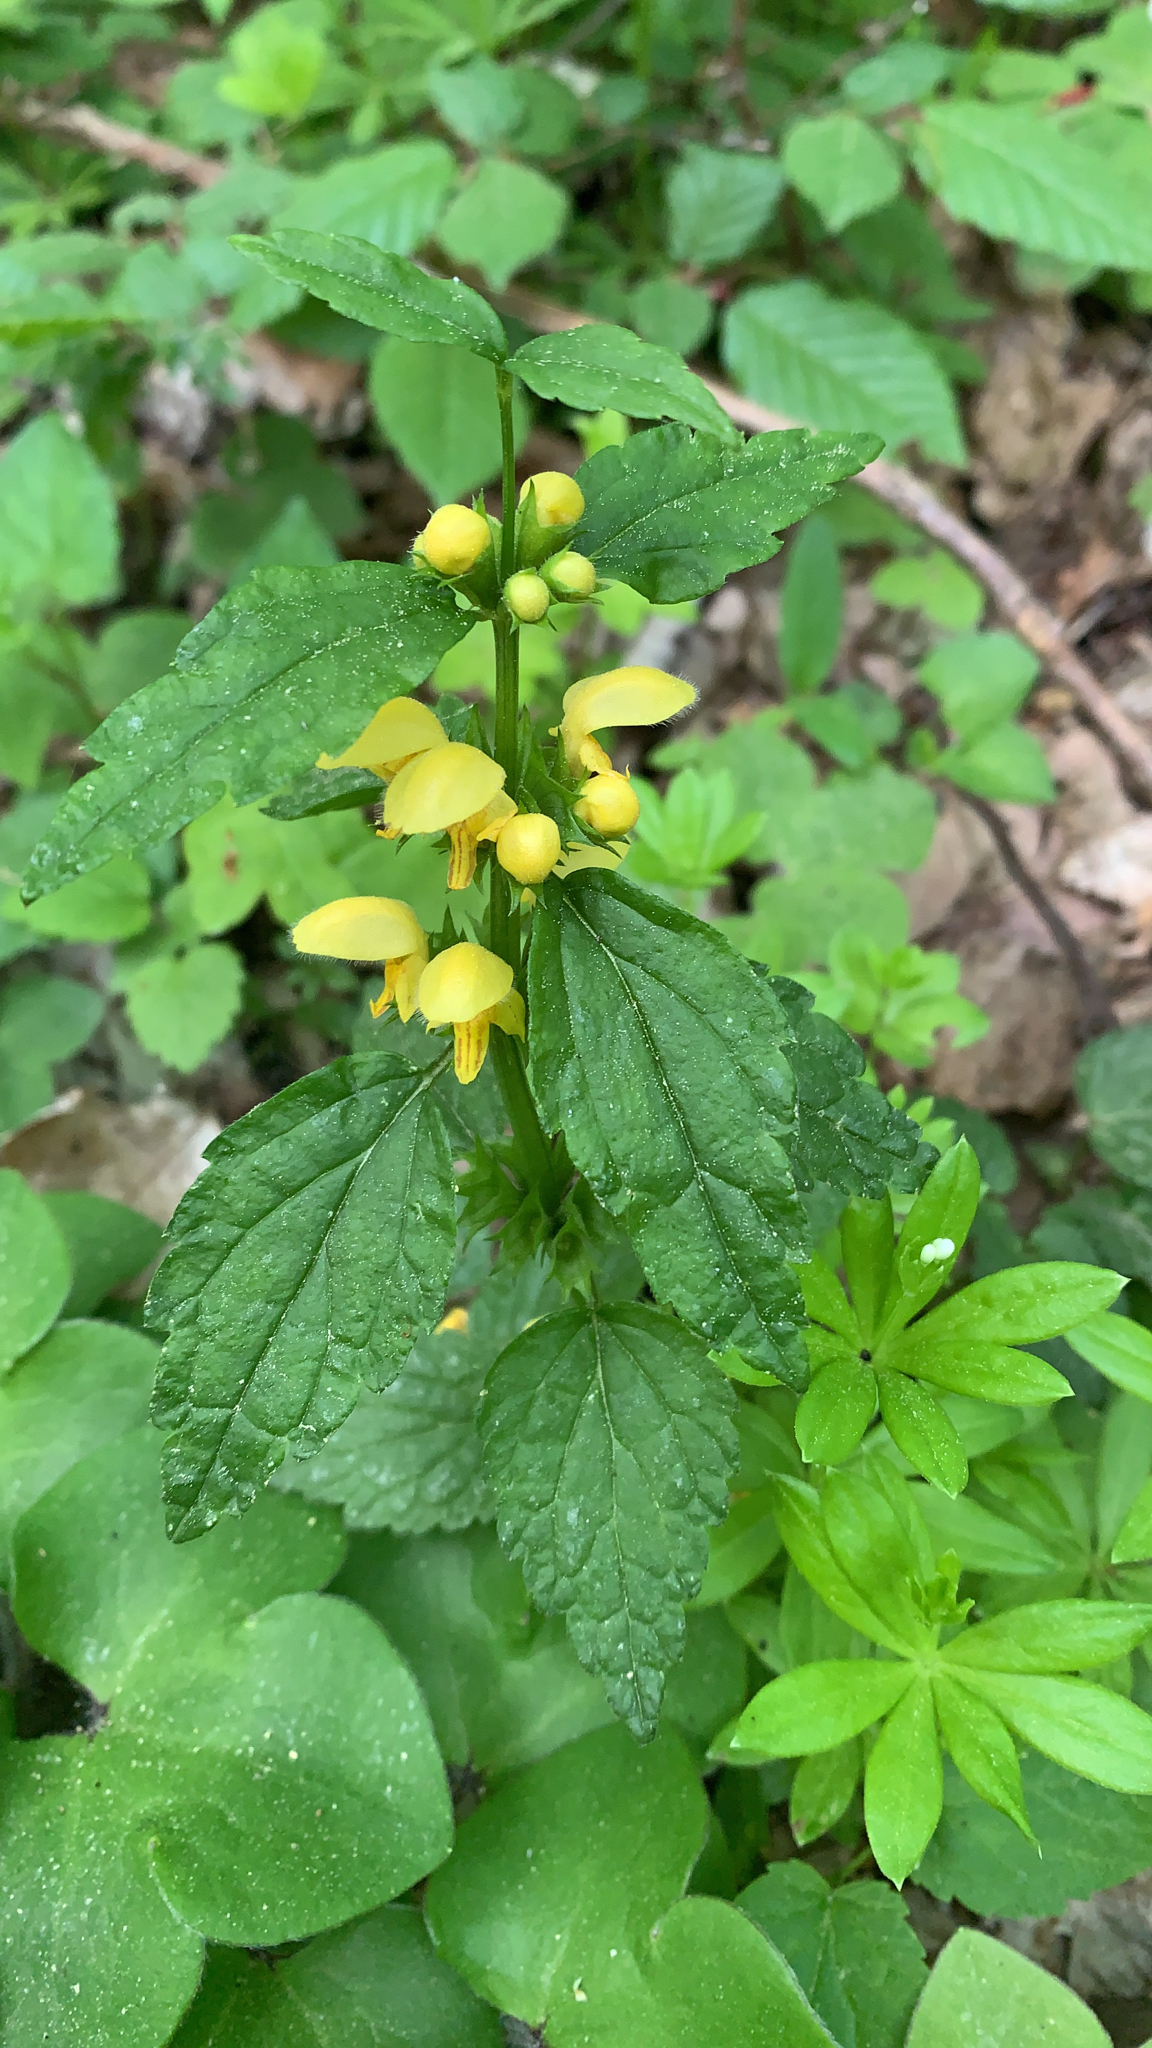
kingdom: Plantae
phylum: Tracheophyta
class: Magnoliopsida
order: Lamiales
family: Lamiaceae
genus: Lamium
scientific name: Lamium galeobdolon
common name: Yellow archangel
